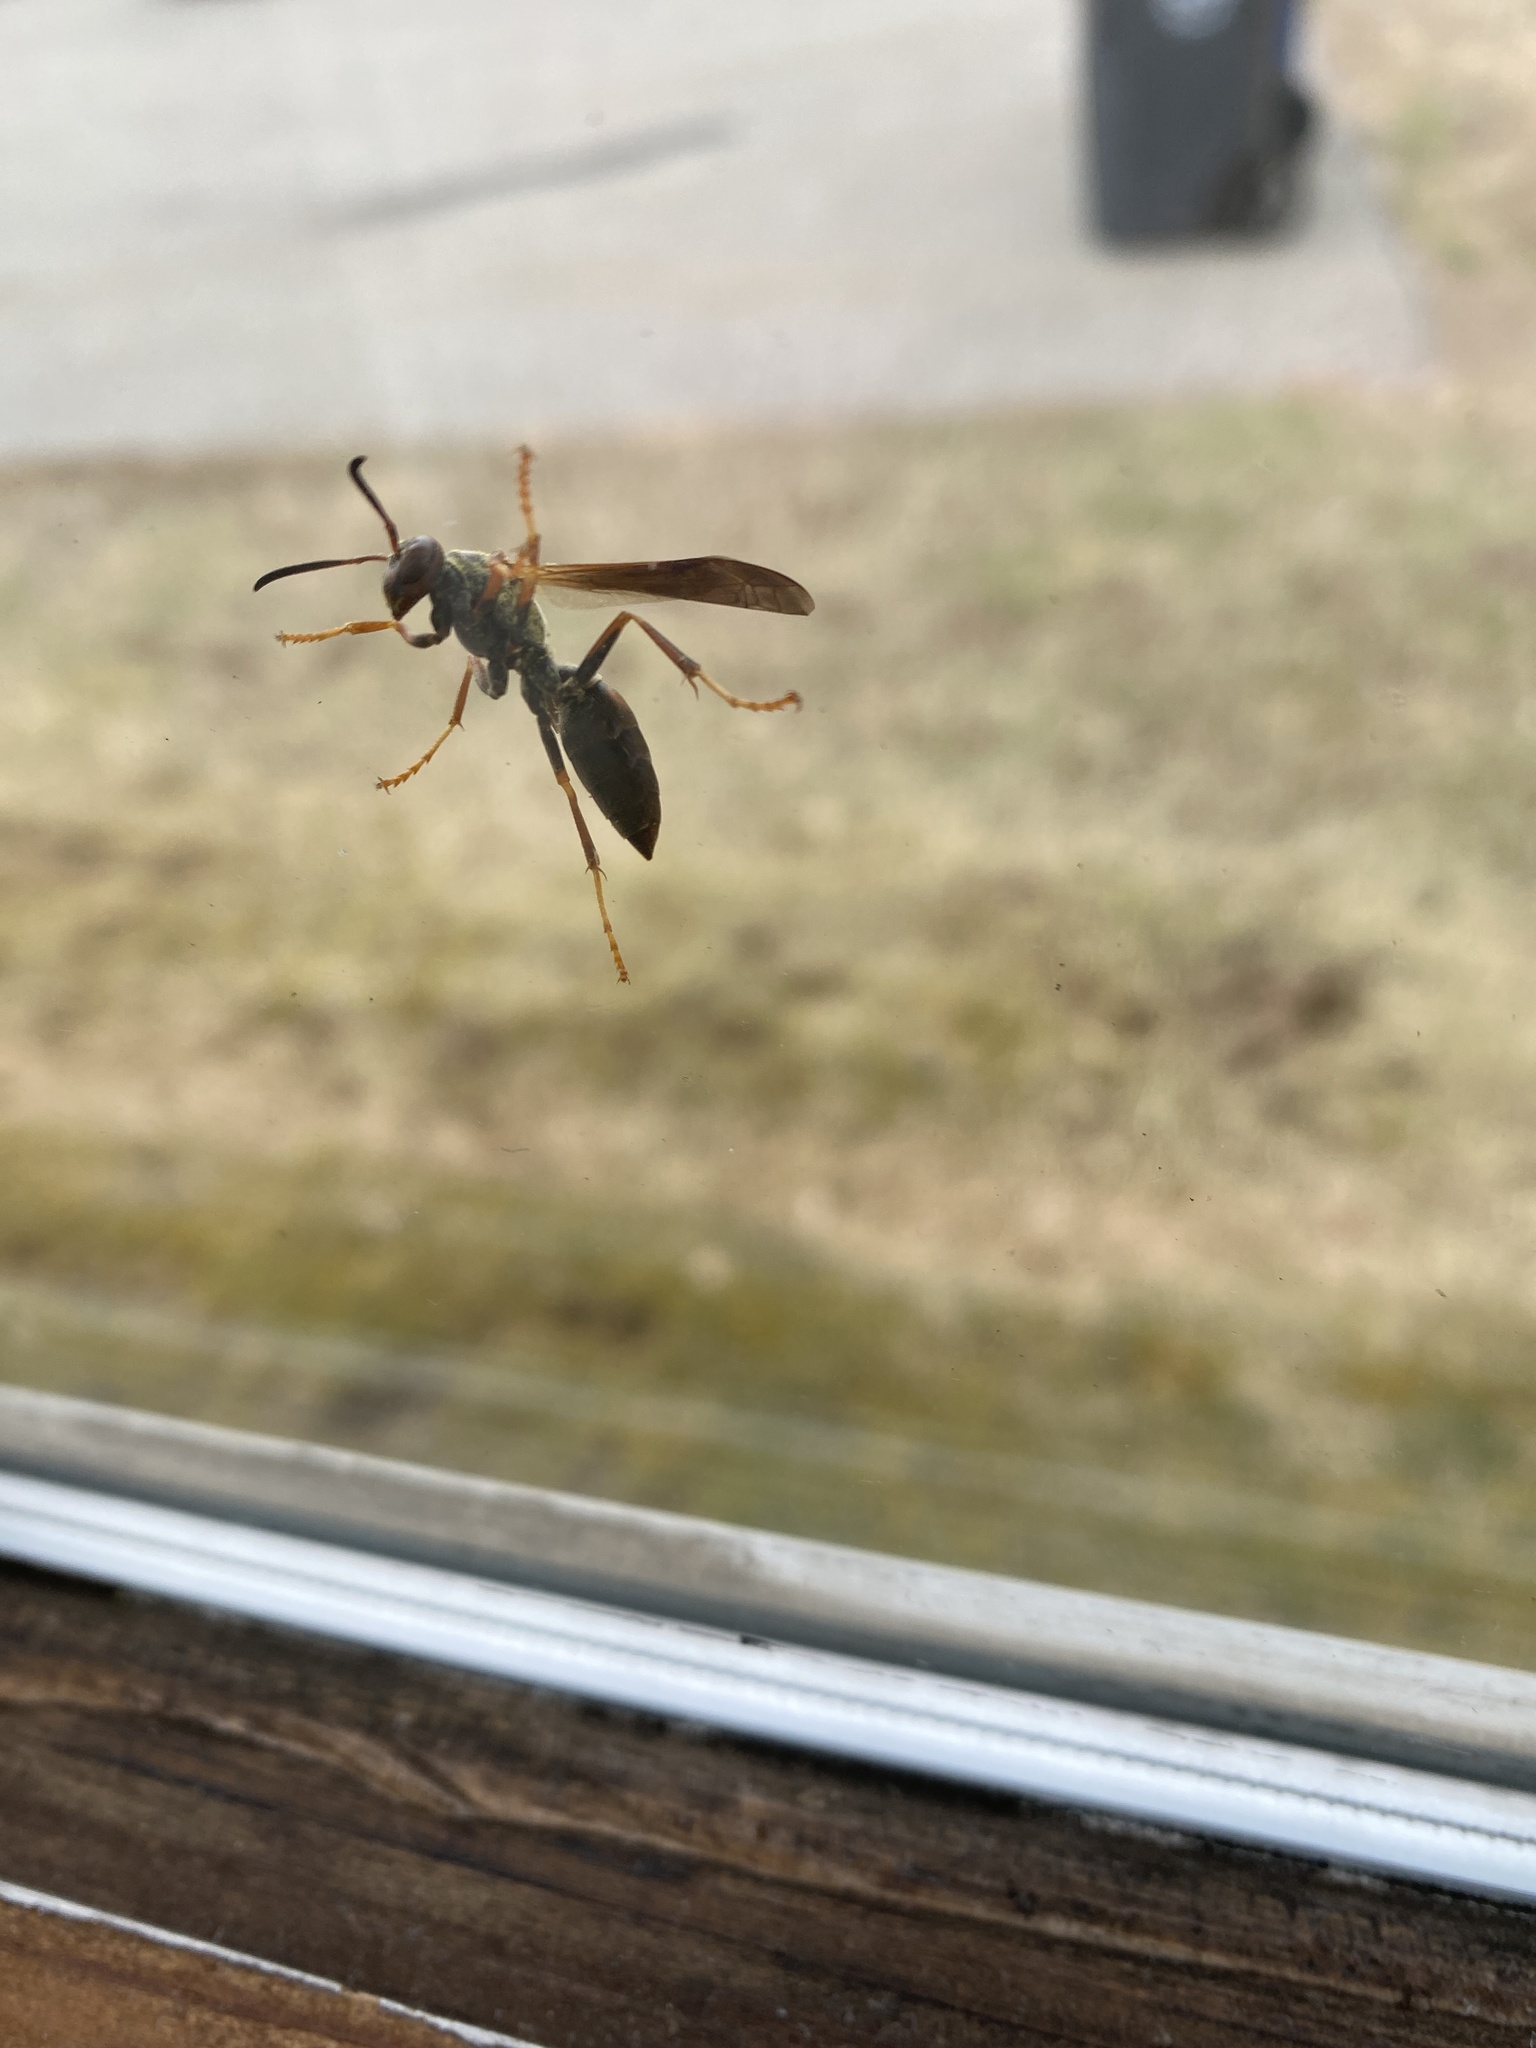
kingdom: Animalia
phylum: Arthropoda
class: Insecta
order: Hymenoptera
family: Eumenidae
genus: Polistes
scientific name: Polistes fuscatus
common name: Dark paper wasp
